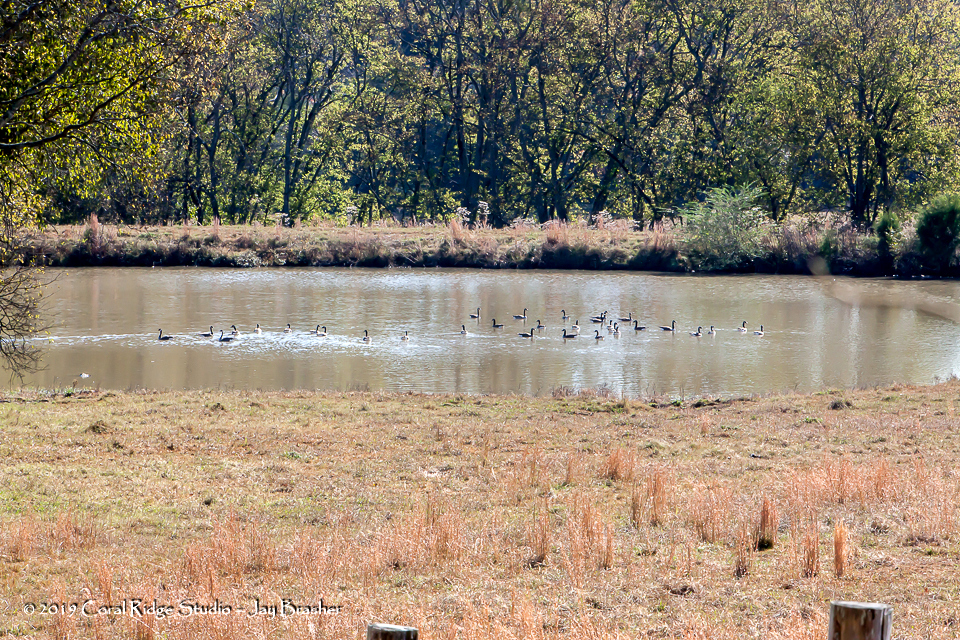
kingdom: Animalia
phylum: Chordata
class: Aves
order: Anseriformes
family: Anatidae
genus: Branta
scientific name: Branta canadensis
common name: Canada goose
